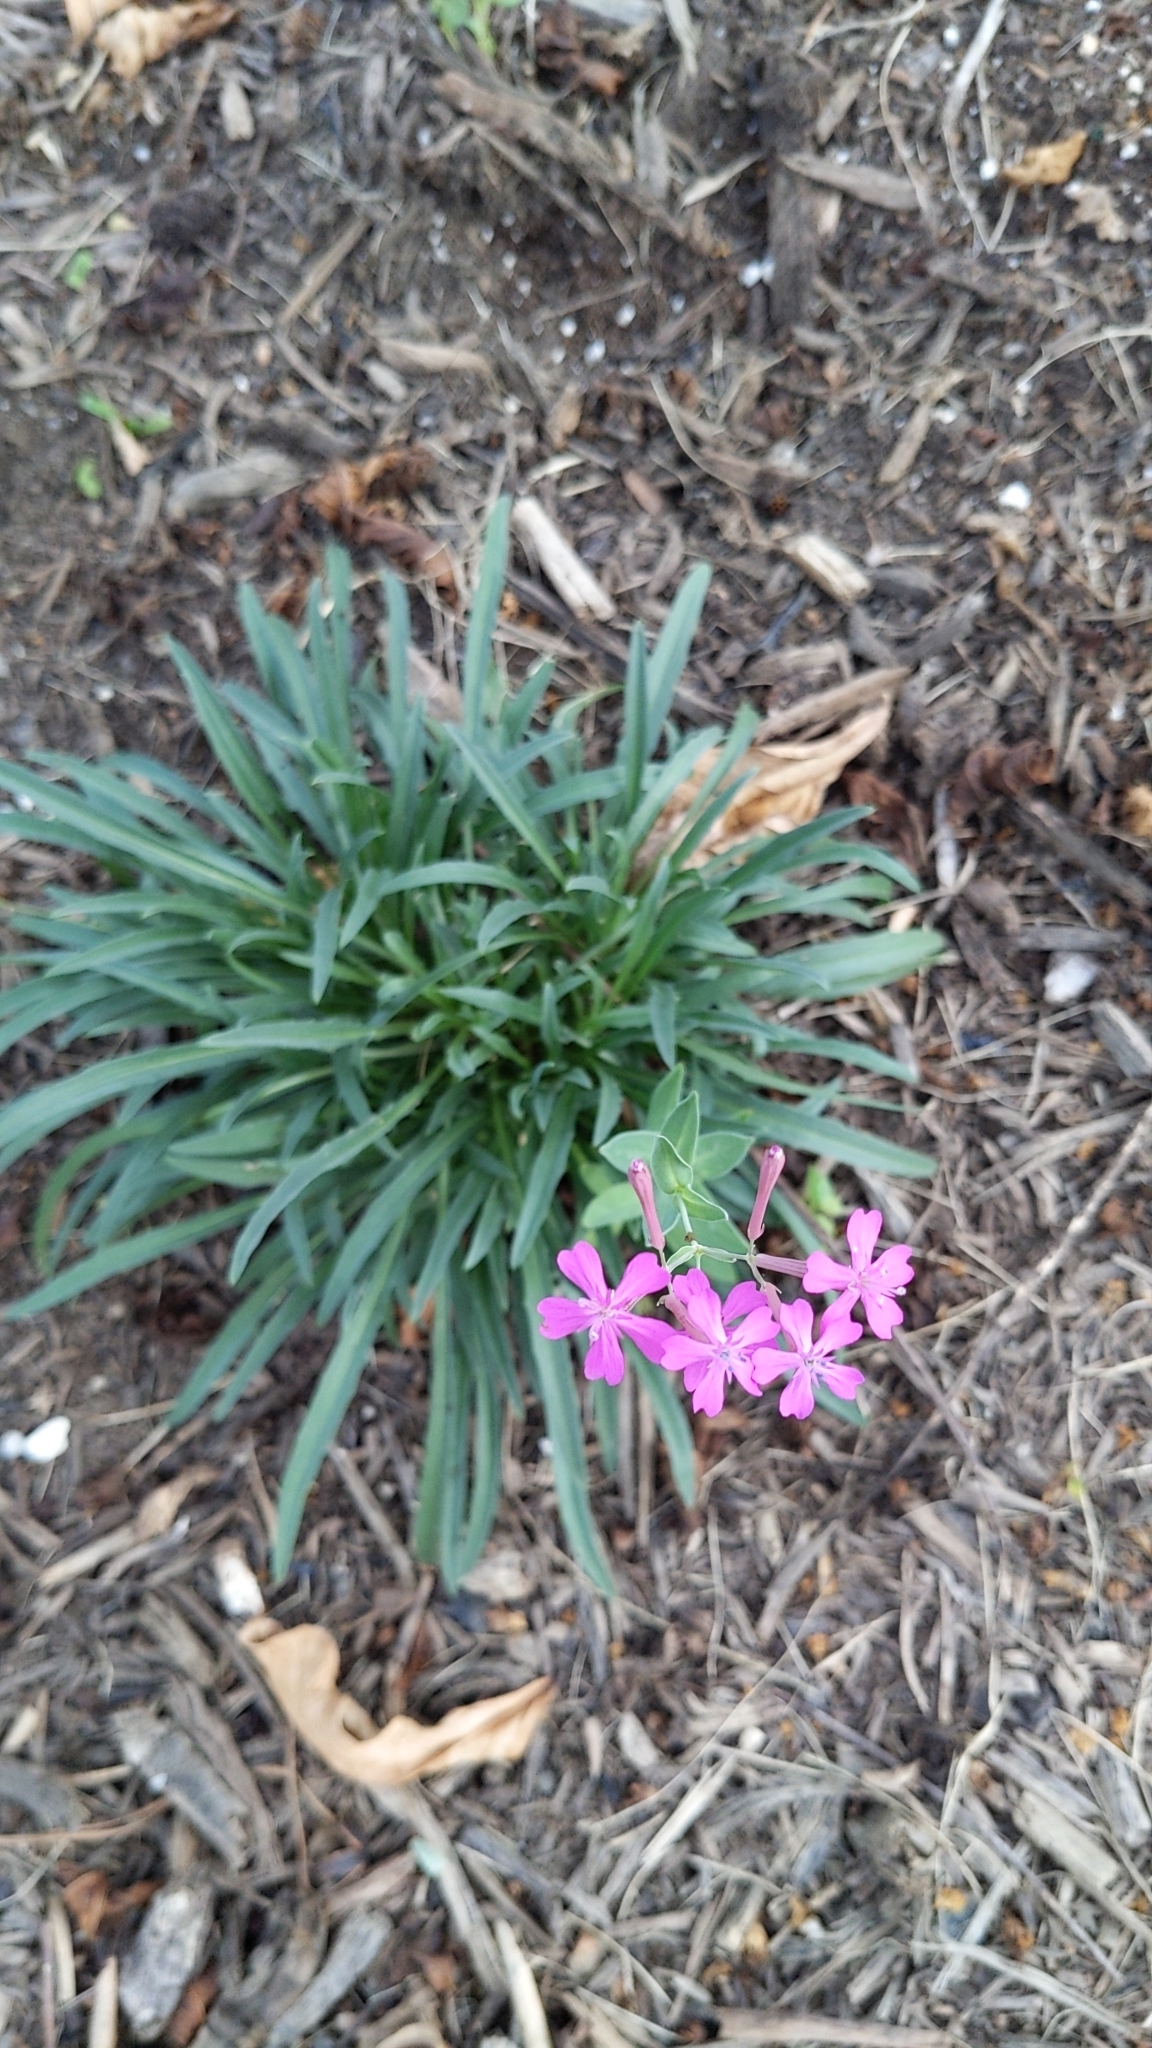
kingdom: Plantae
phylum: Tracheophyta
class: Magnoliopsida
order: Caryophyllales
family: Caryophyllaceae
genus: Atocion
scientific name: Atocion armeria
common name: Sweet william catchfly
